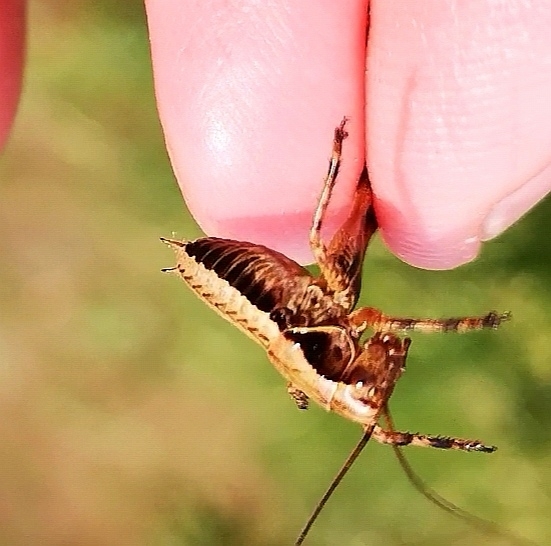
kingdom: Animalia
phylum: Arthropoda
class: Insecta
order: Orthoptera
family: Tettigoniidae
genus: Pholidoptera
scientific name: Pholidoptera griseoaptera
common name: Dark bush-cricket
